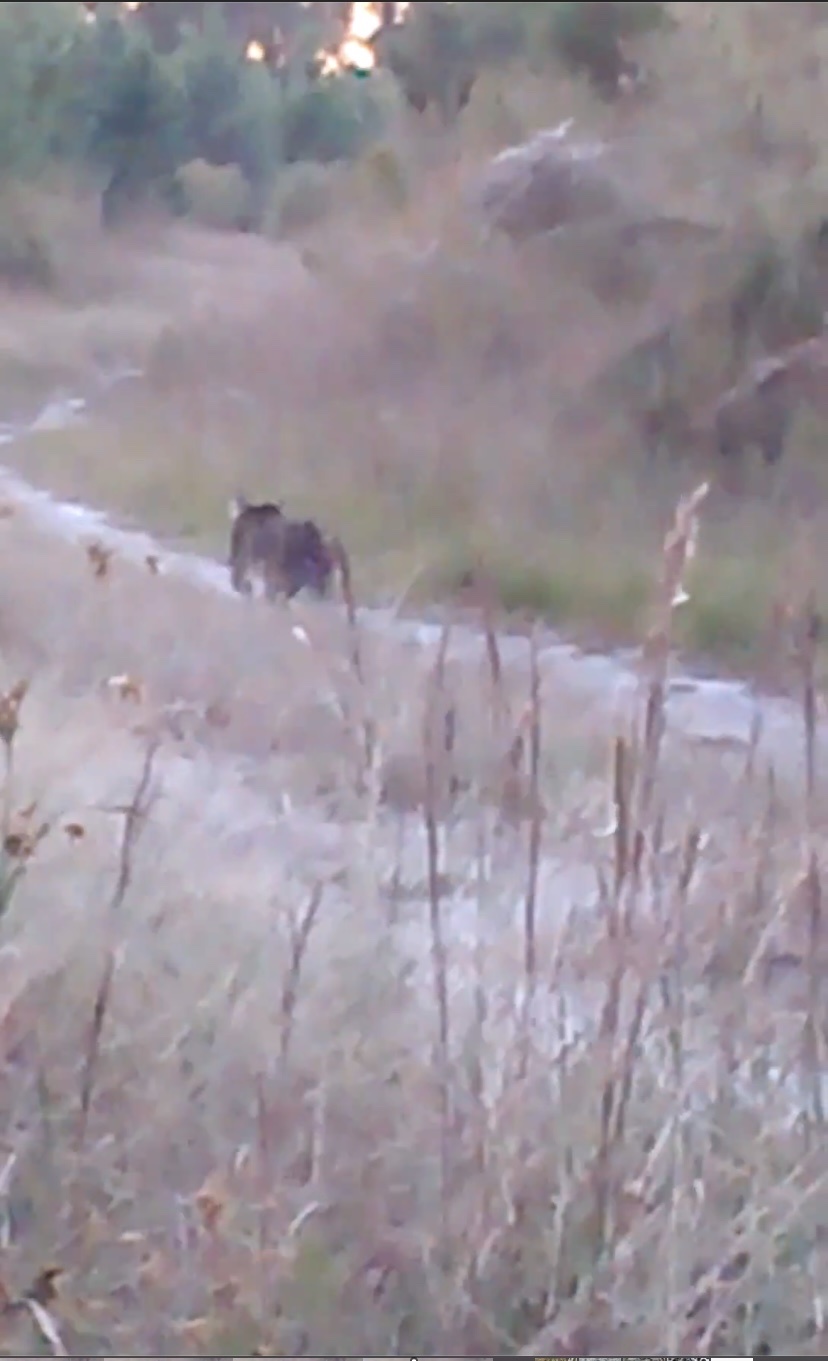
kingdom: Animalia
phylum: Chordata
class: Mammalia
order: Carnivora
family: Felidae
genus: Lynx
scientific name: Lynx rufus
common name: Bobcat
